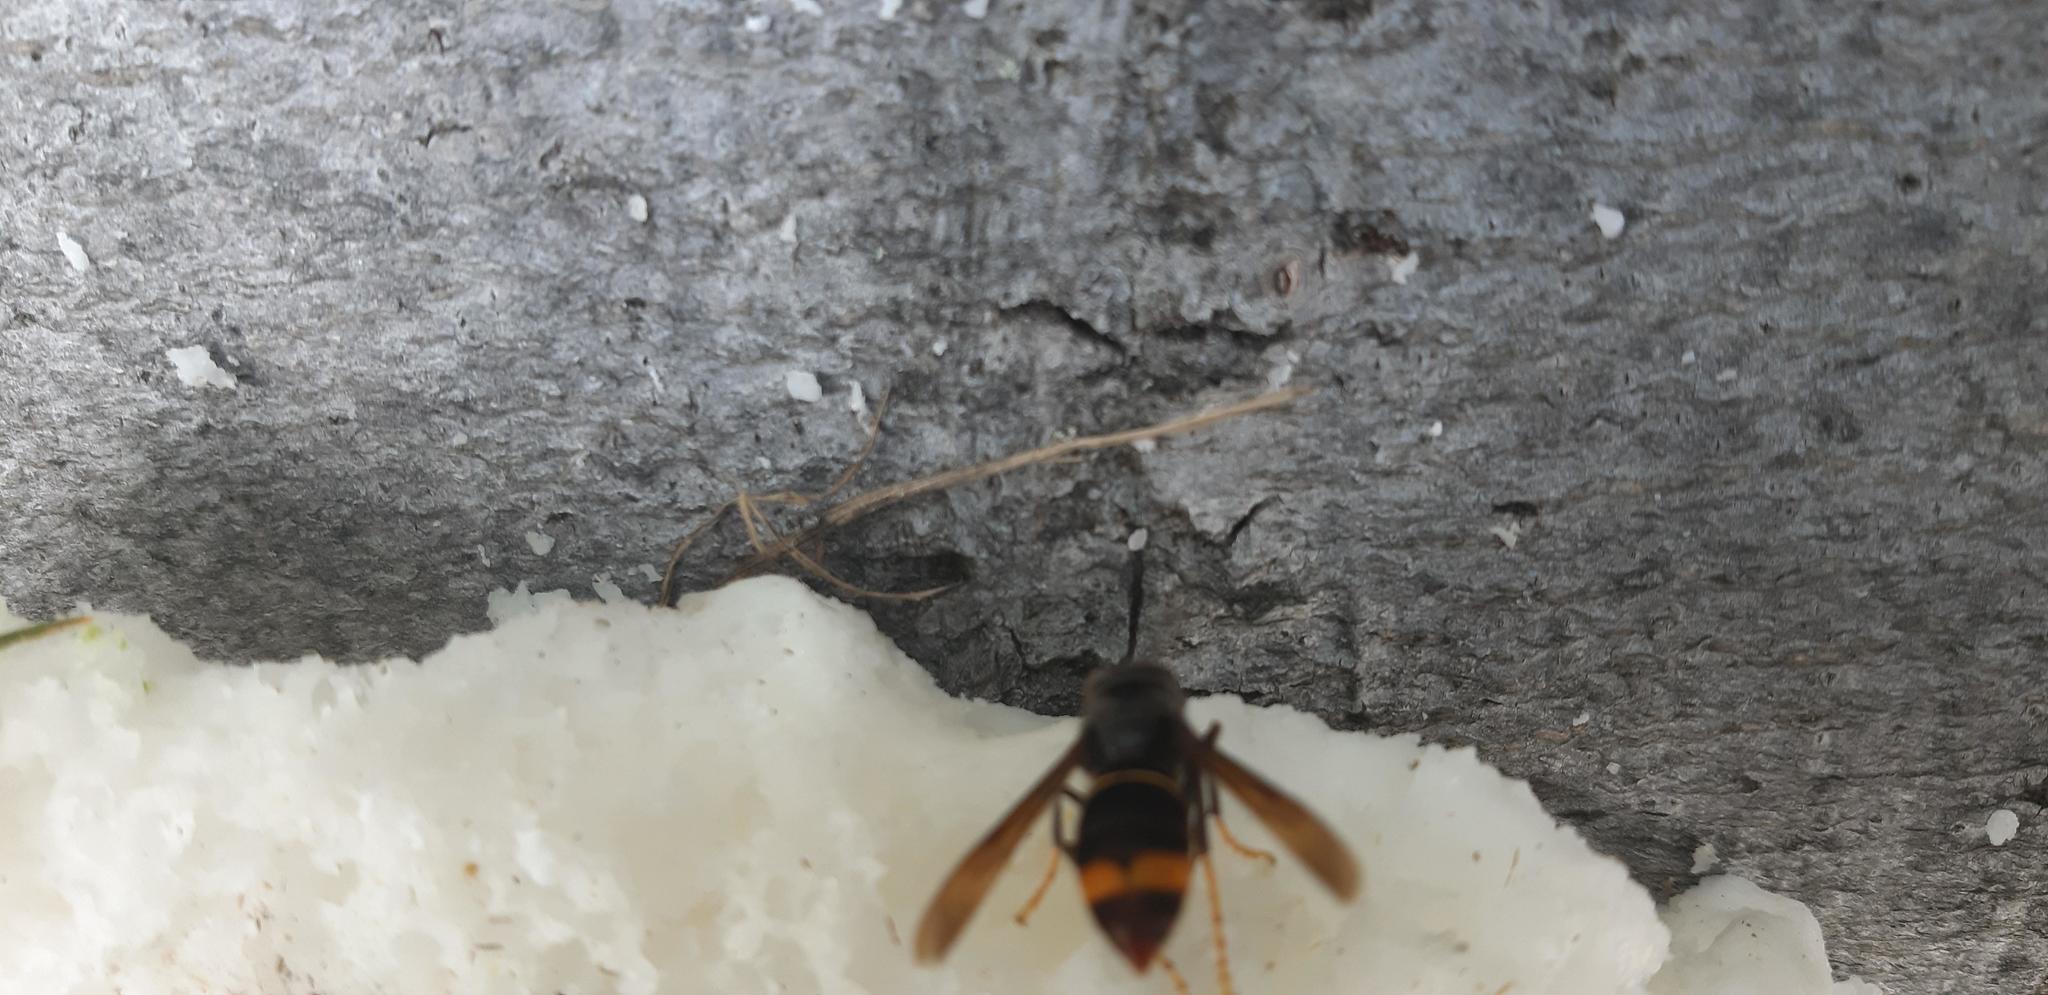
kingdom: Animalia
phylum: Arthropoda
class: Insecta
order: Hymenoptera
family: Vespidae
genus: Vespa
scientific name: Vespa velutina
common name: Asian hornet
